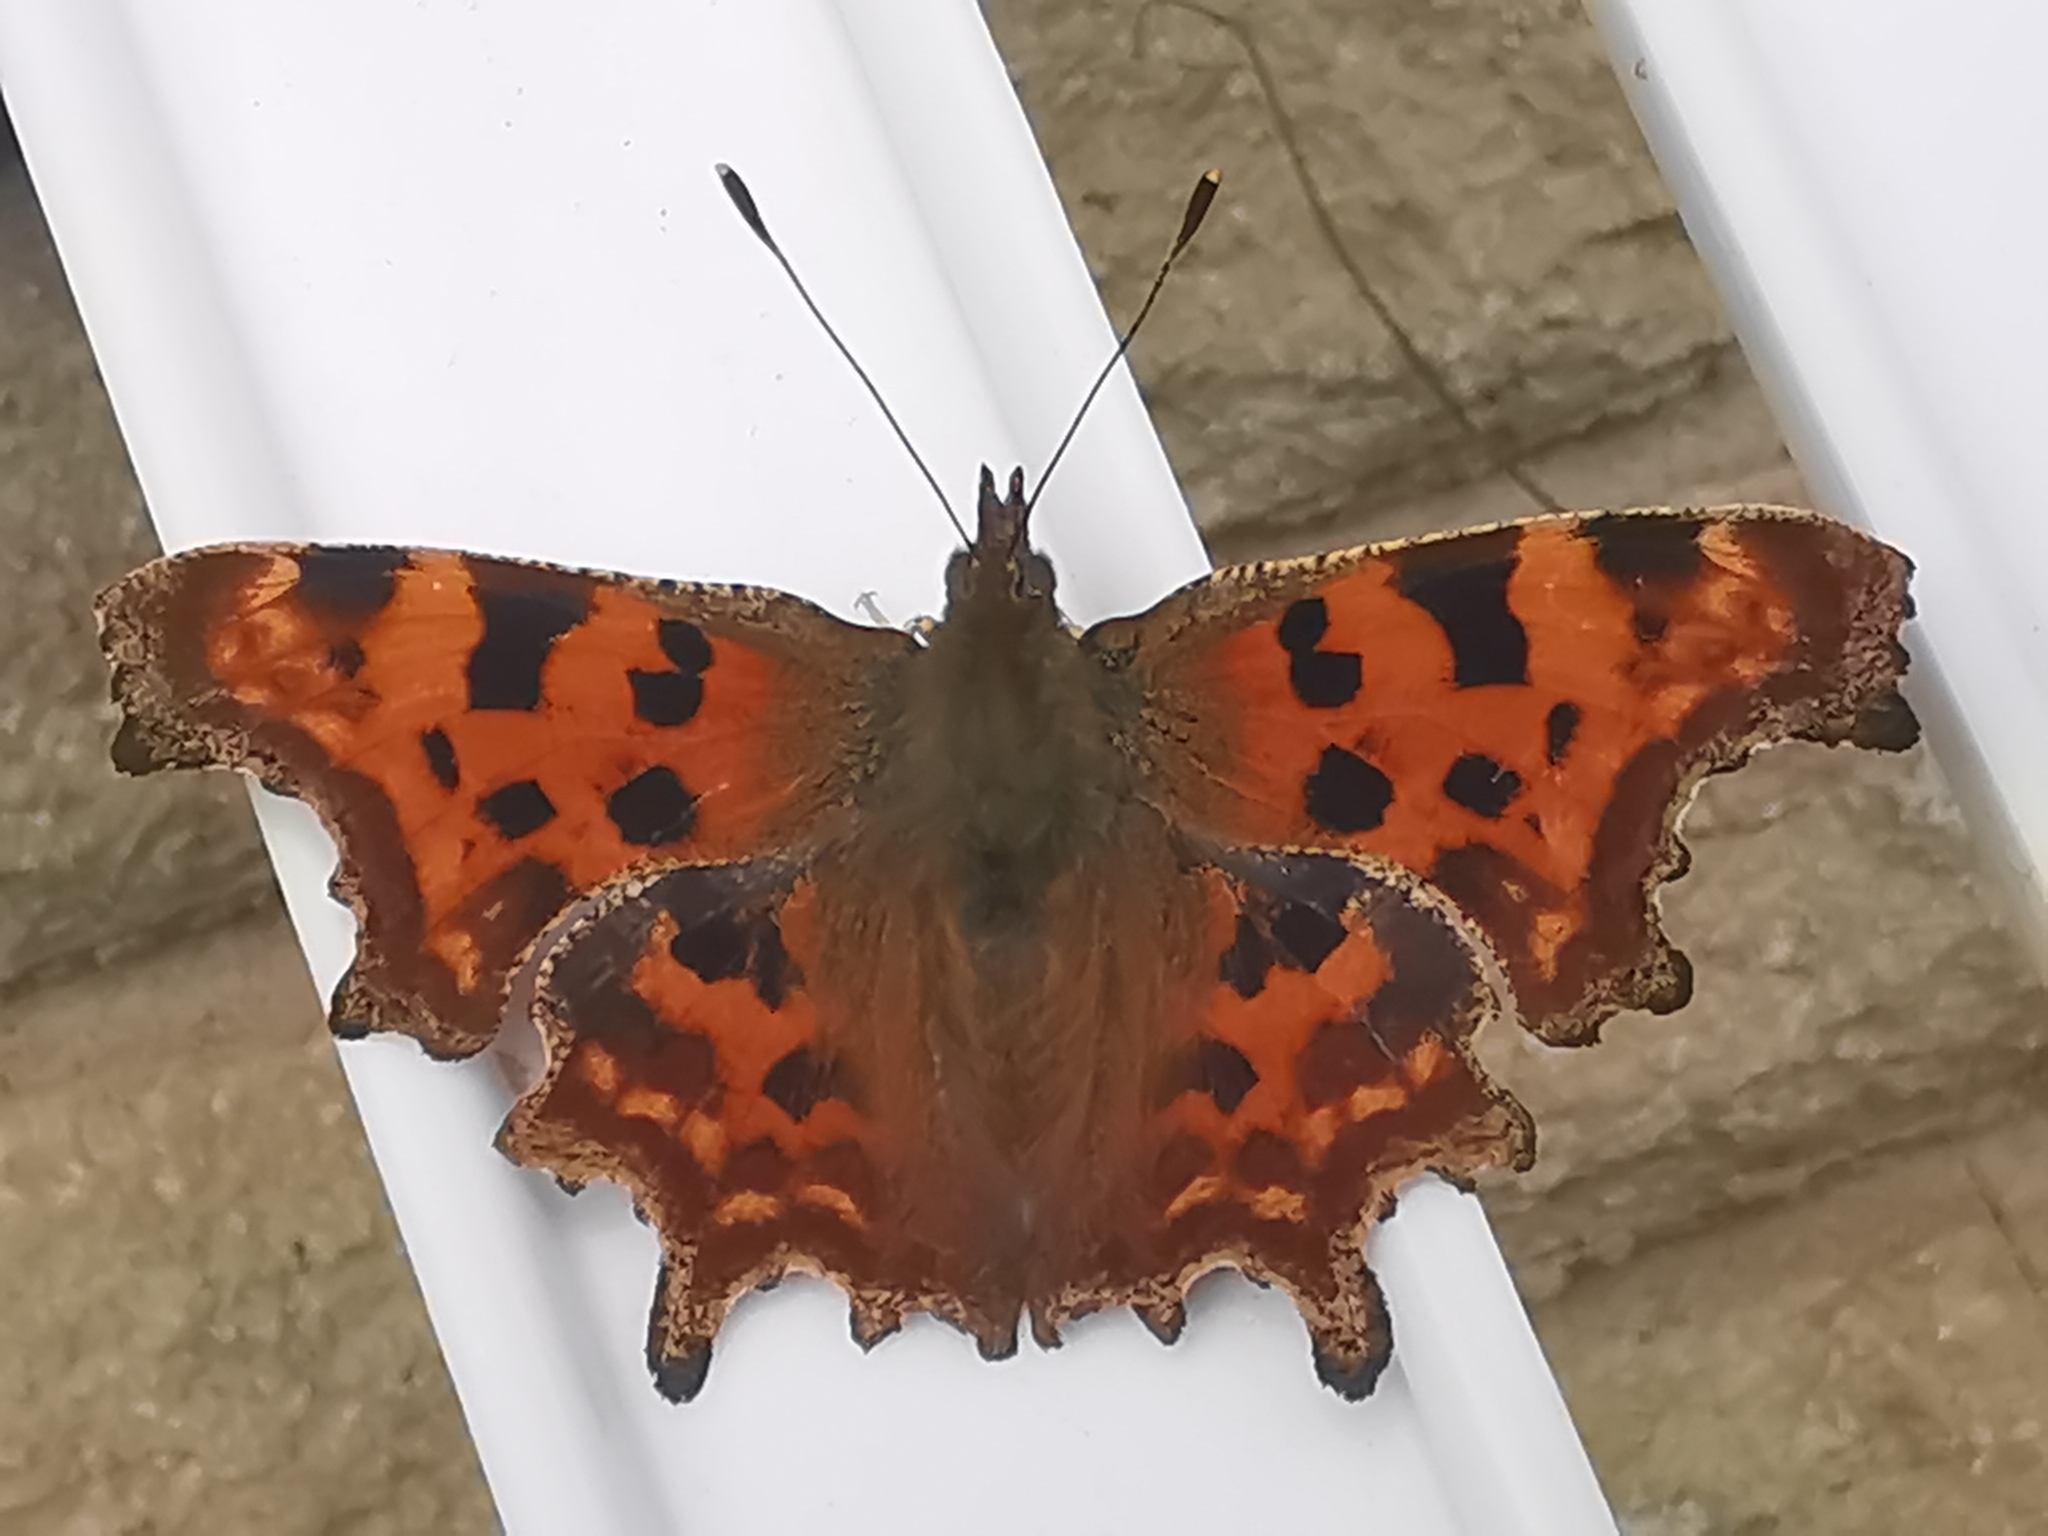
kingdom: Animalia
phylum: Arthropoda
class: Insecta
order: Lepidoptera
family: Nymphalidae
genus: Polygonia
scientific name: Polygonia c-album
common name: Comma
